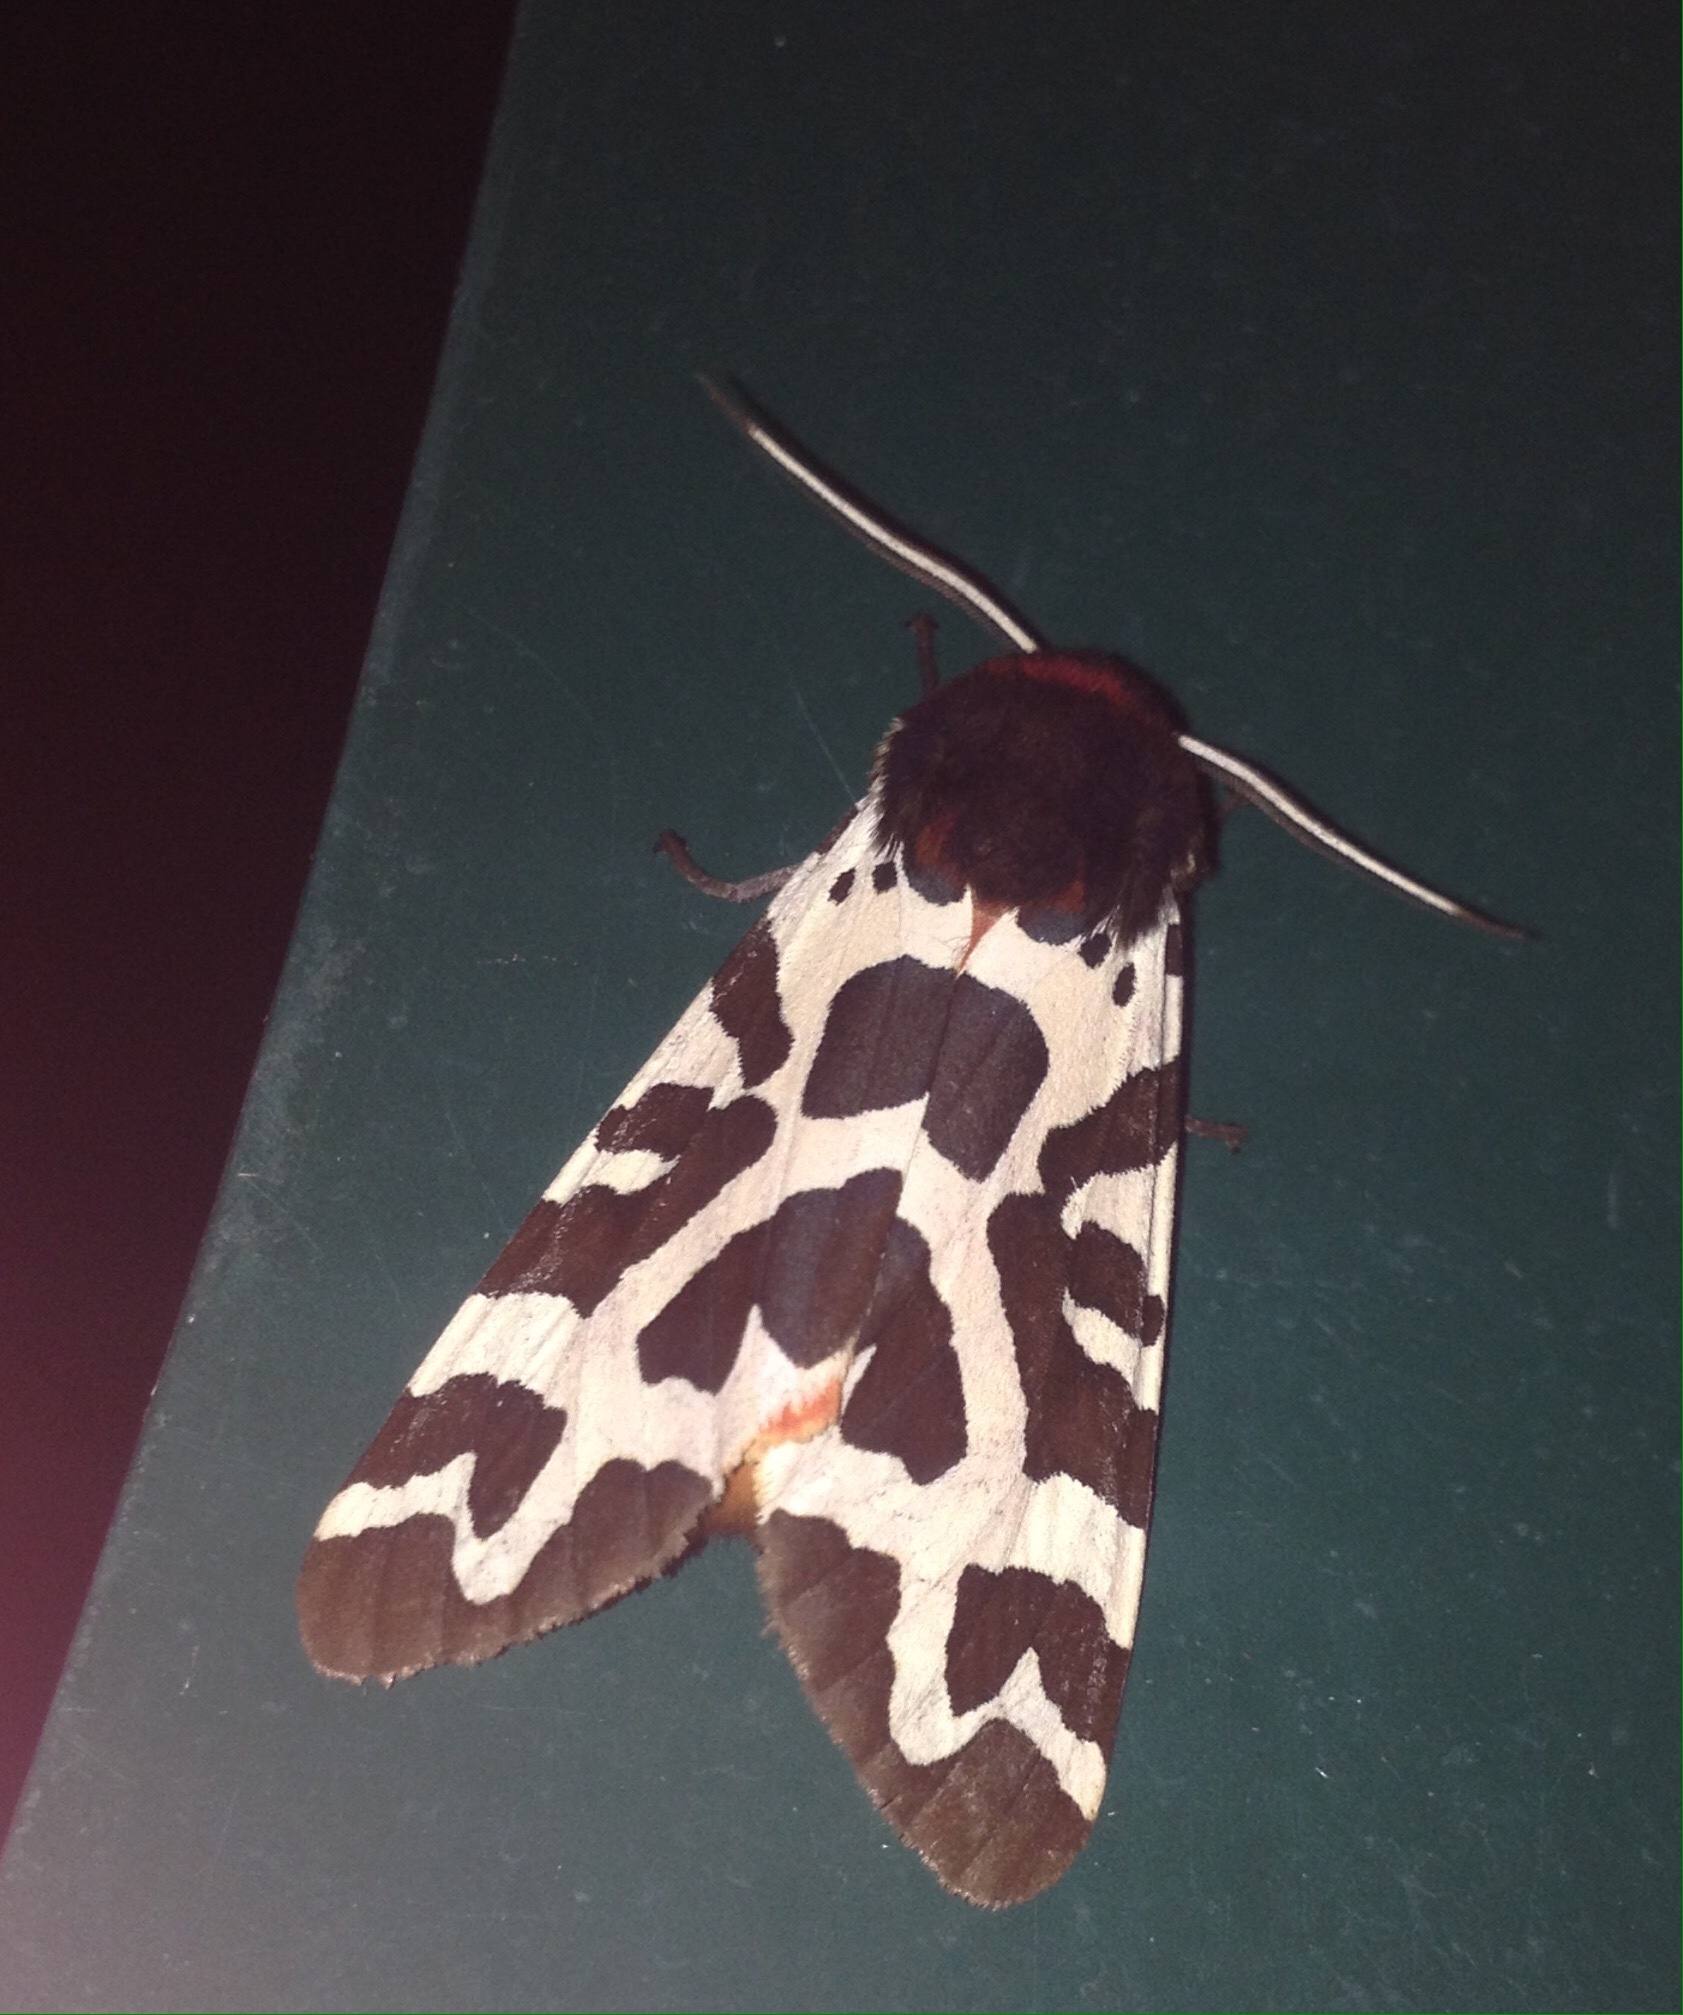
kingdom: Animalia
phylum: Arthropoda
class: Insecta
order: Lepidoptera
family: Erebidae
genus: Arctia
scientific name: Arctia caja
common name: Garden tiger
